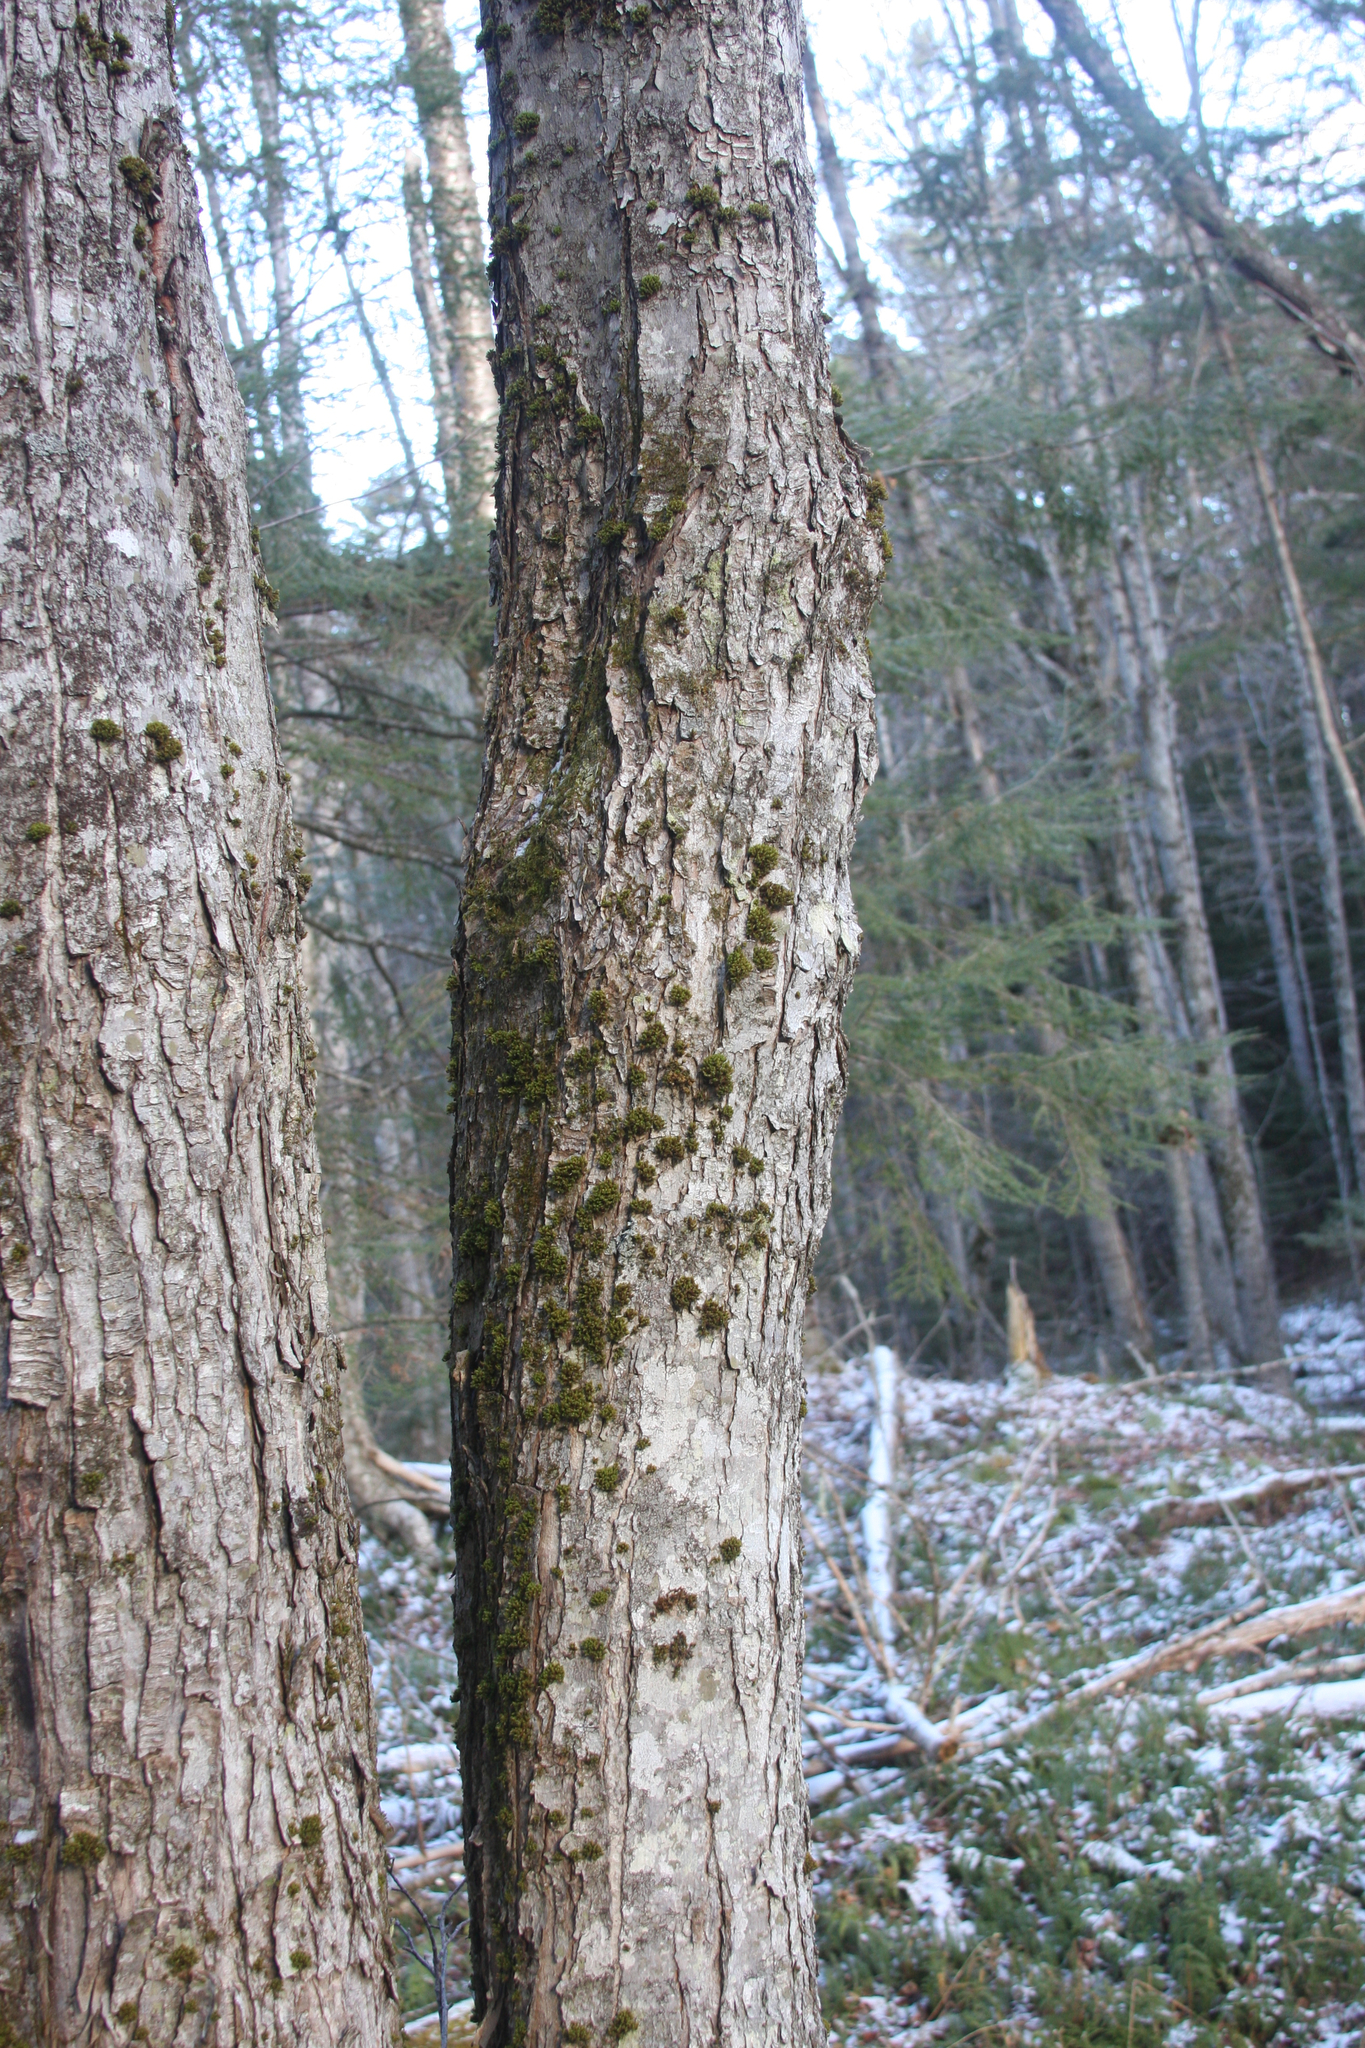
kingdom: Plantae
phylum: Bryophyta
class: Bryopsida
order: Orthotrichales
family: Orthotrichaceae
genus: Ulota
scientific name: Ulota crispa
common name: Crisped pincushion moss
